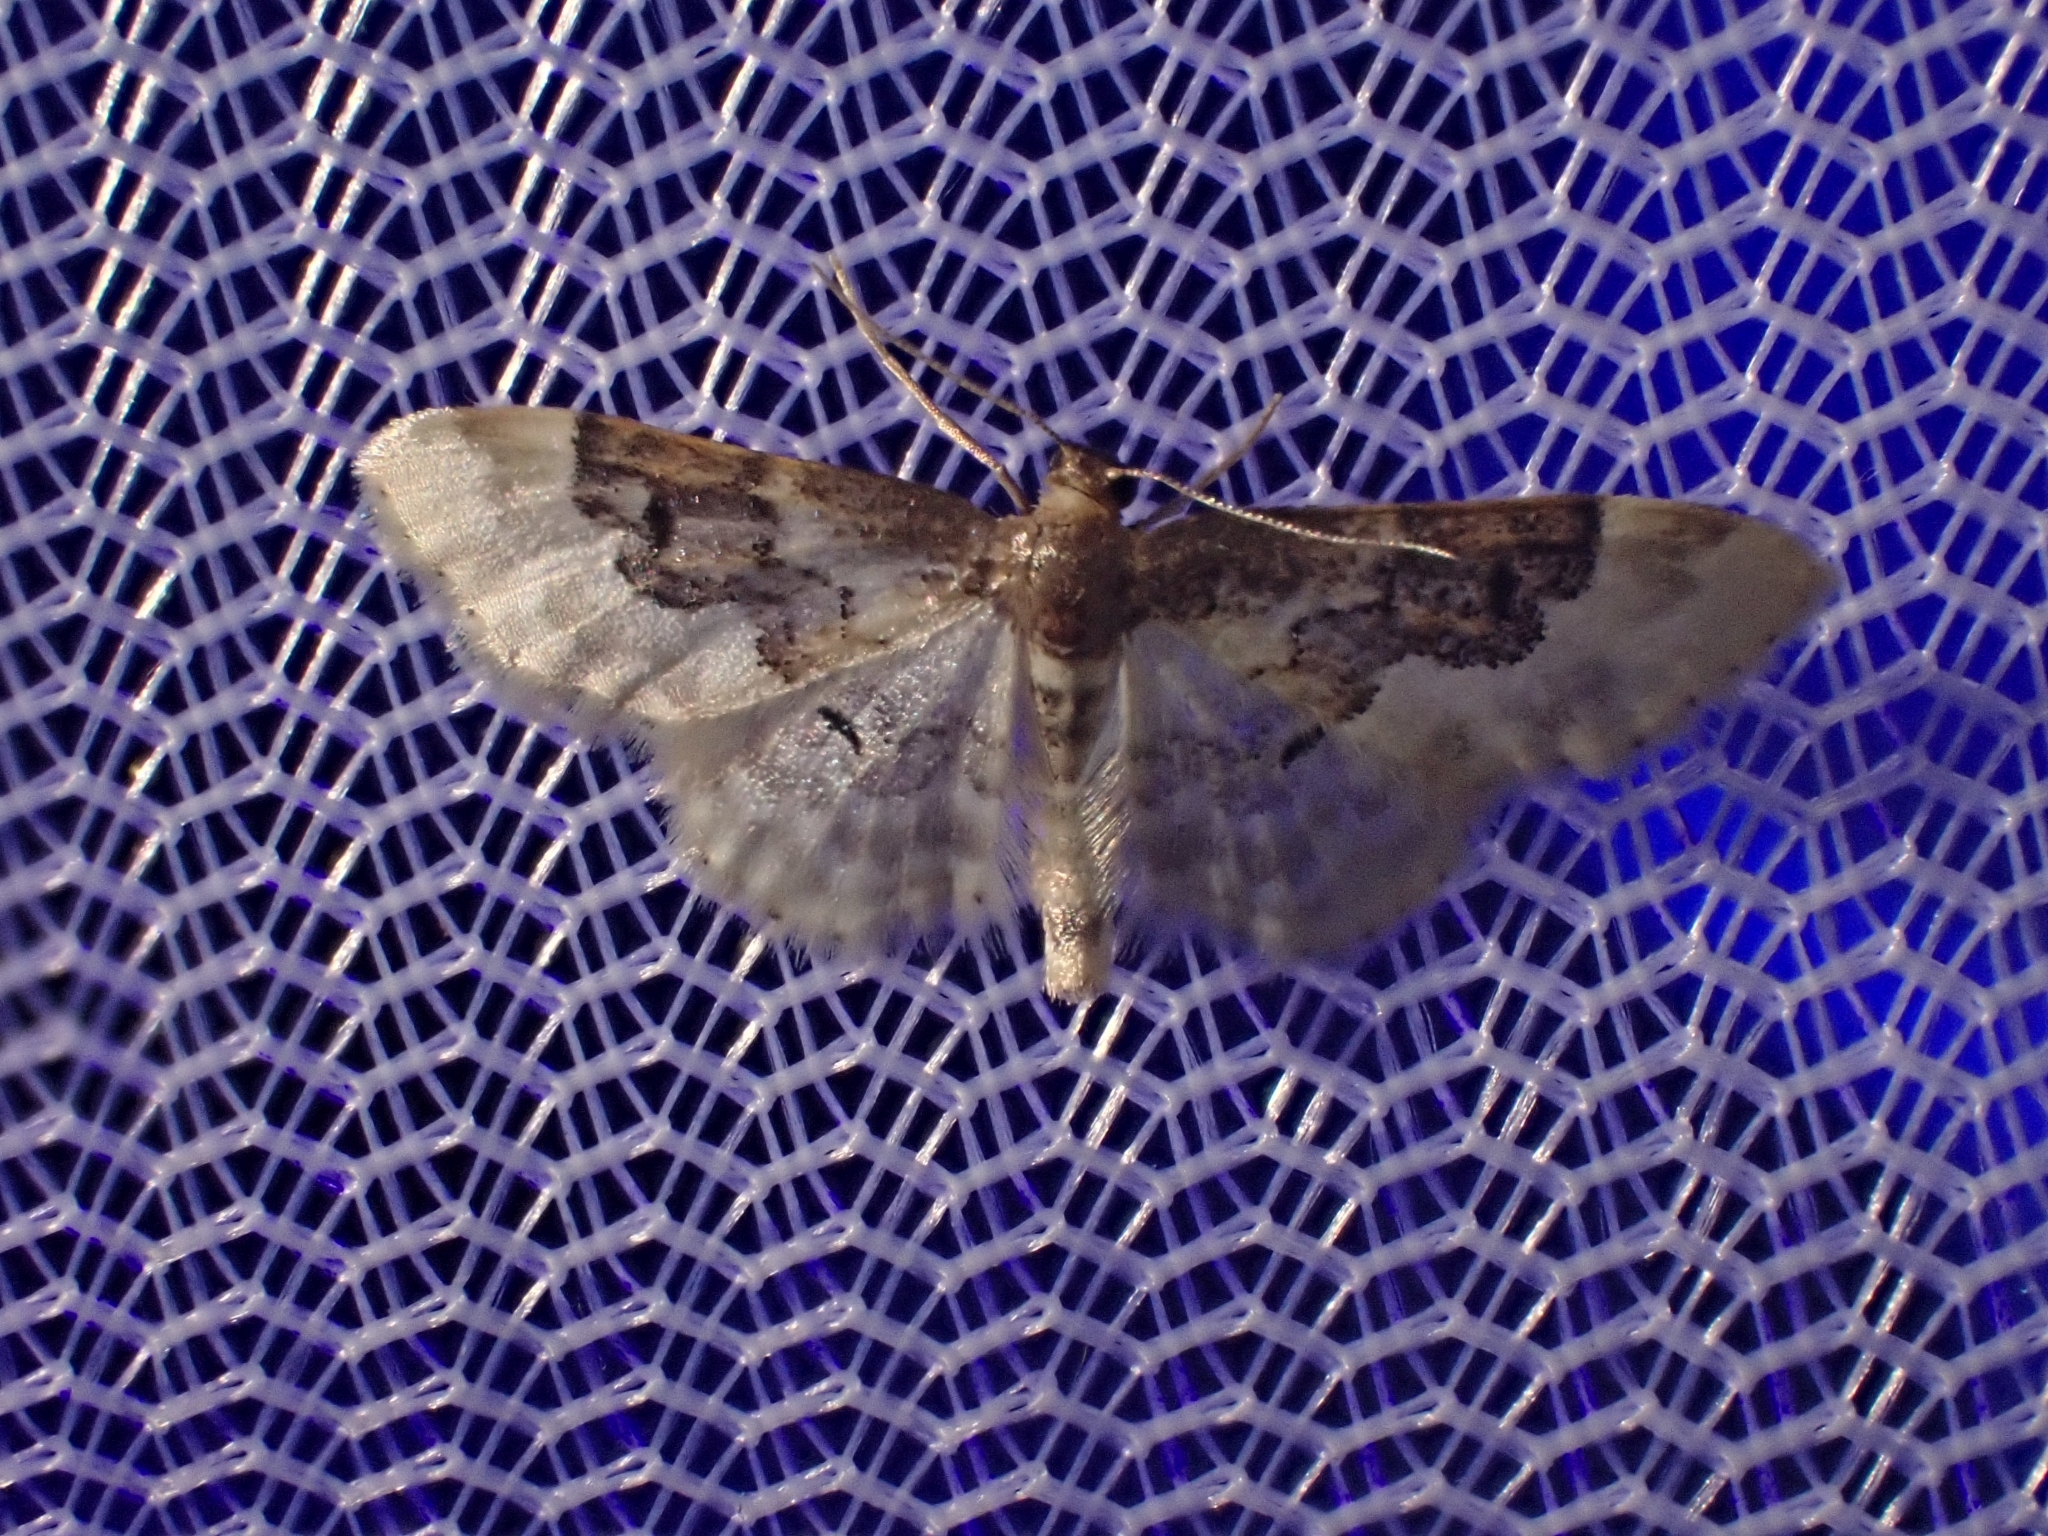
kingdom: Animalia
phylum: Arthropoda
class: Insecta
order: Lepidoptera
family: Geometridae
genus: Idaea
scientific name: Idaea rusticata
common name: Least carpet
